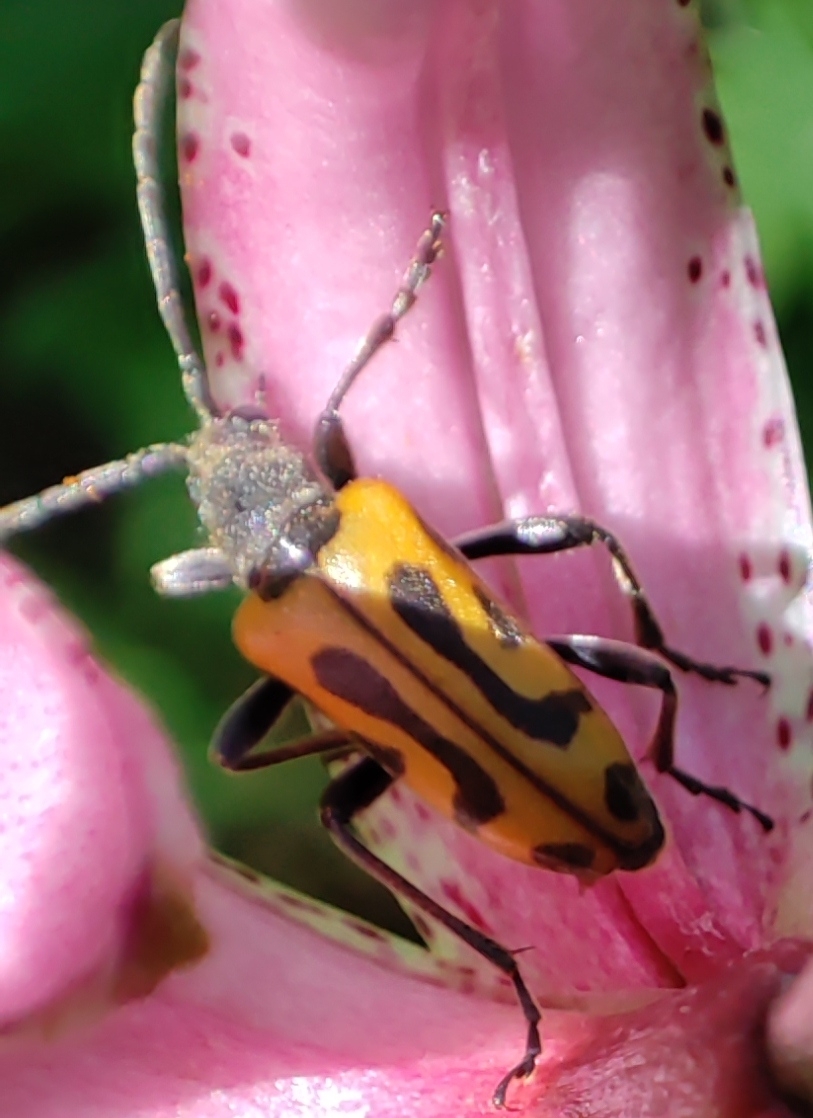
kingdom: Animalia
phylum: Arthropoda
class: Insecta
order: Coleoptera
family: Cerambycidae
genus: Brachyta
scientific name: Brachyta interrogationis
